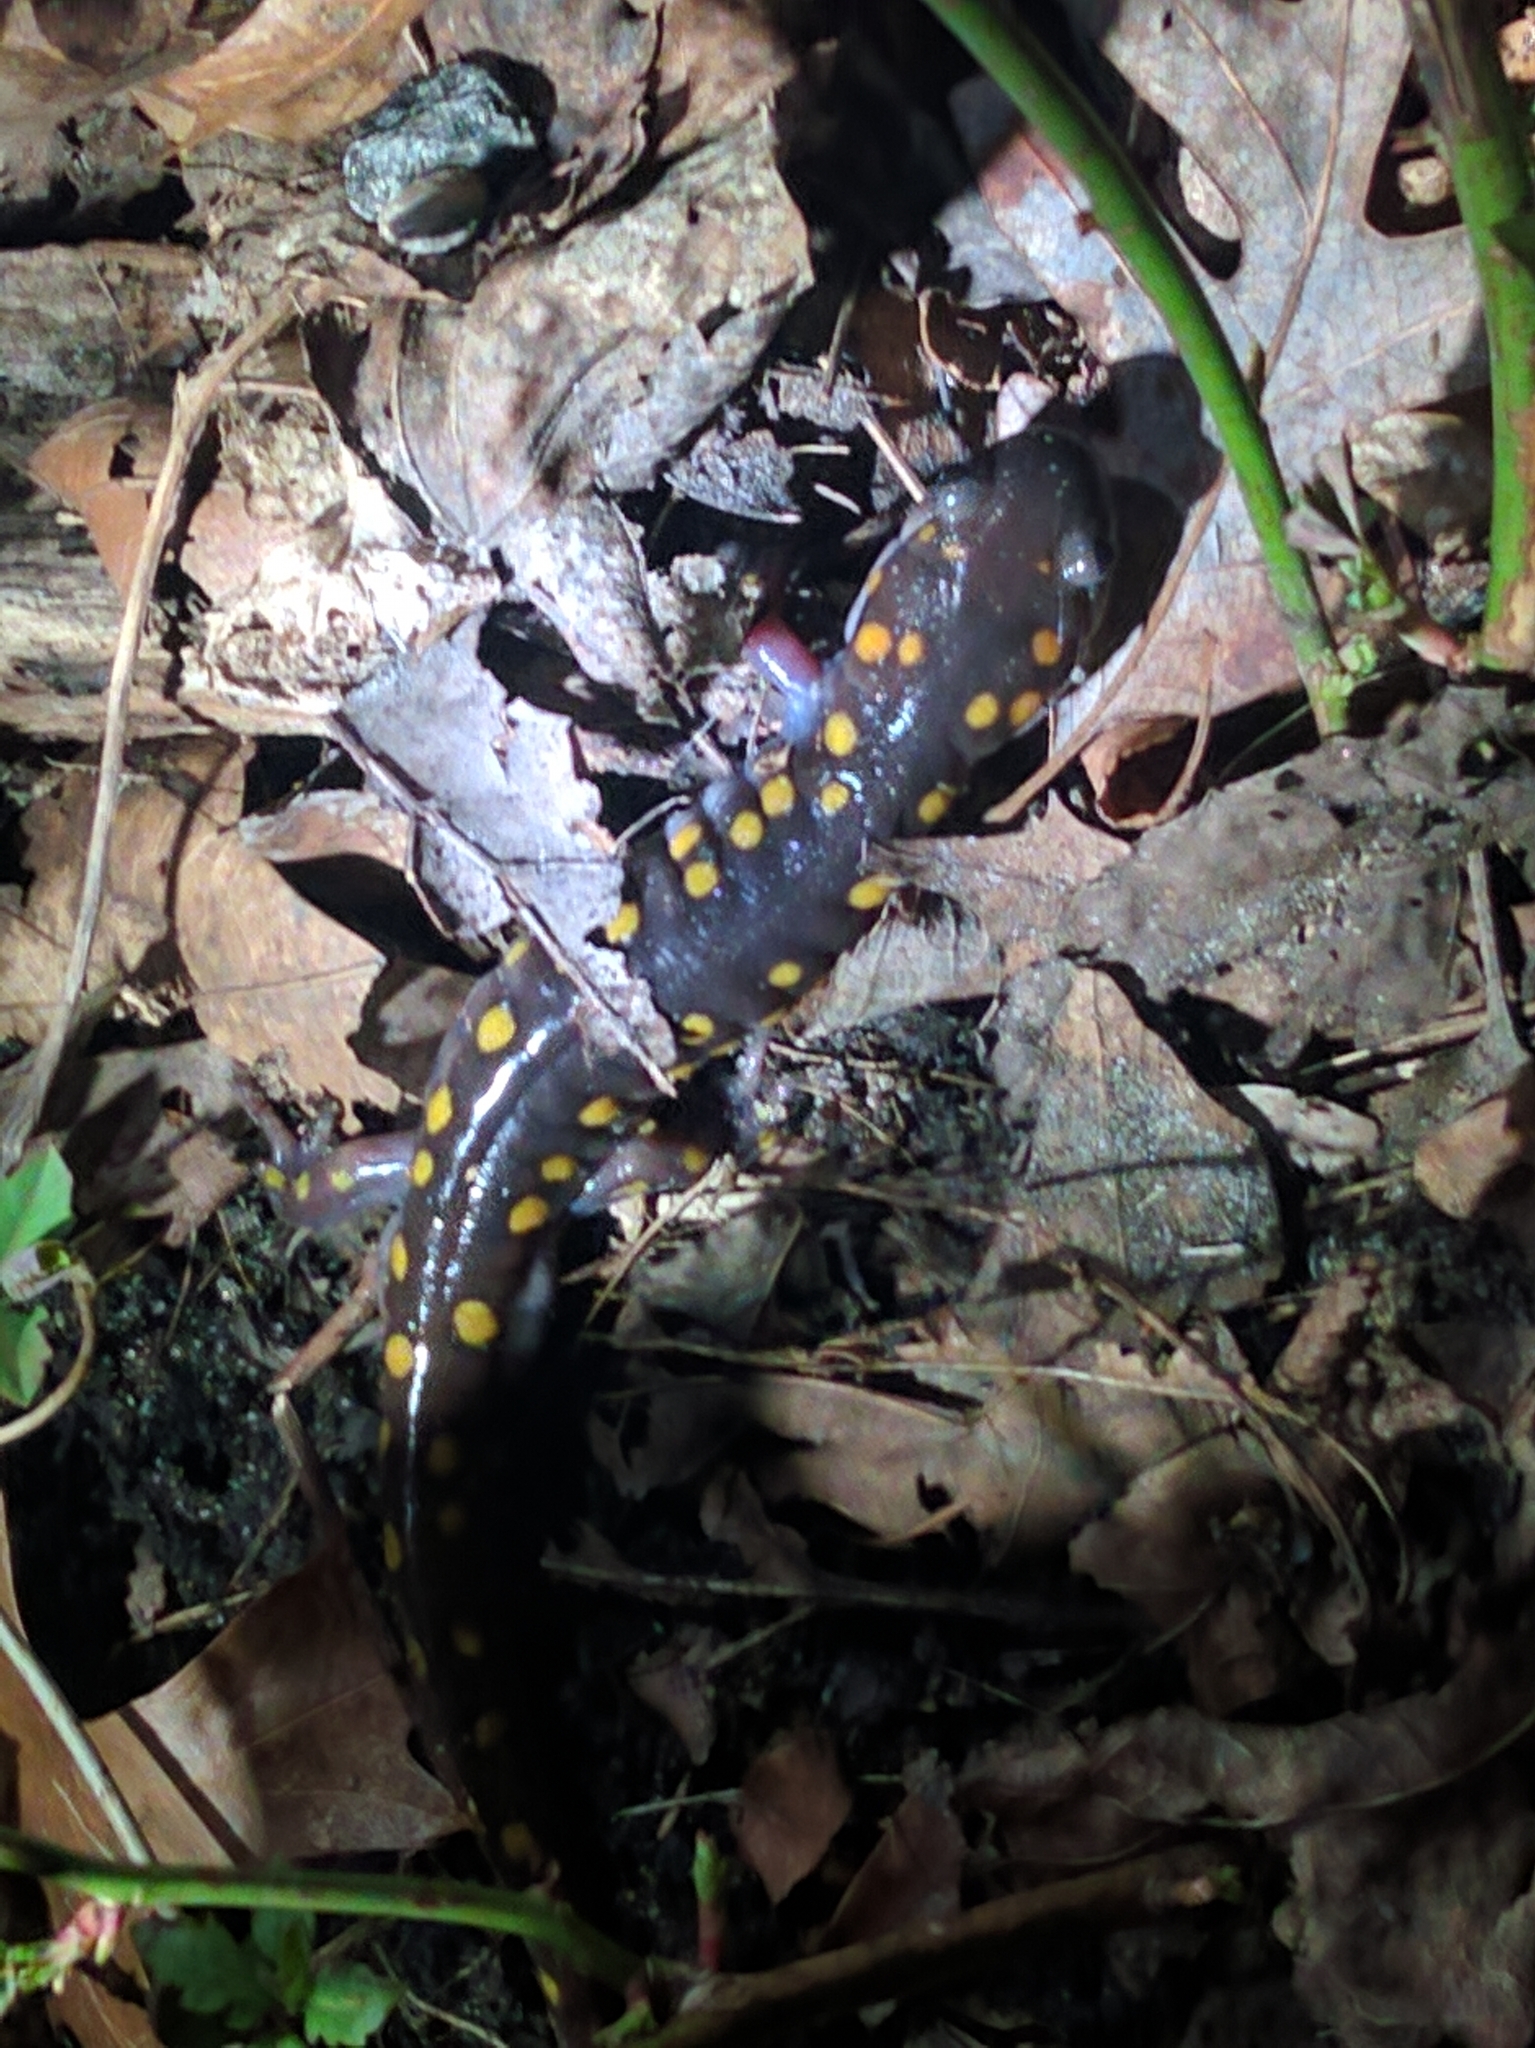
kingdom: Animalia
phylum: Chordata
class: Amphibia
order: Caudata
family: Ambystomatidae
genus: Ambystoma
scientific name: Ambystoma maculatum
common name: Spotted salamander
